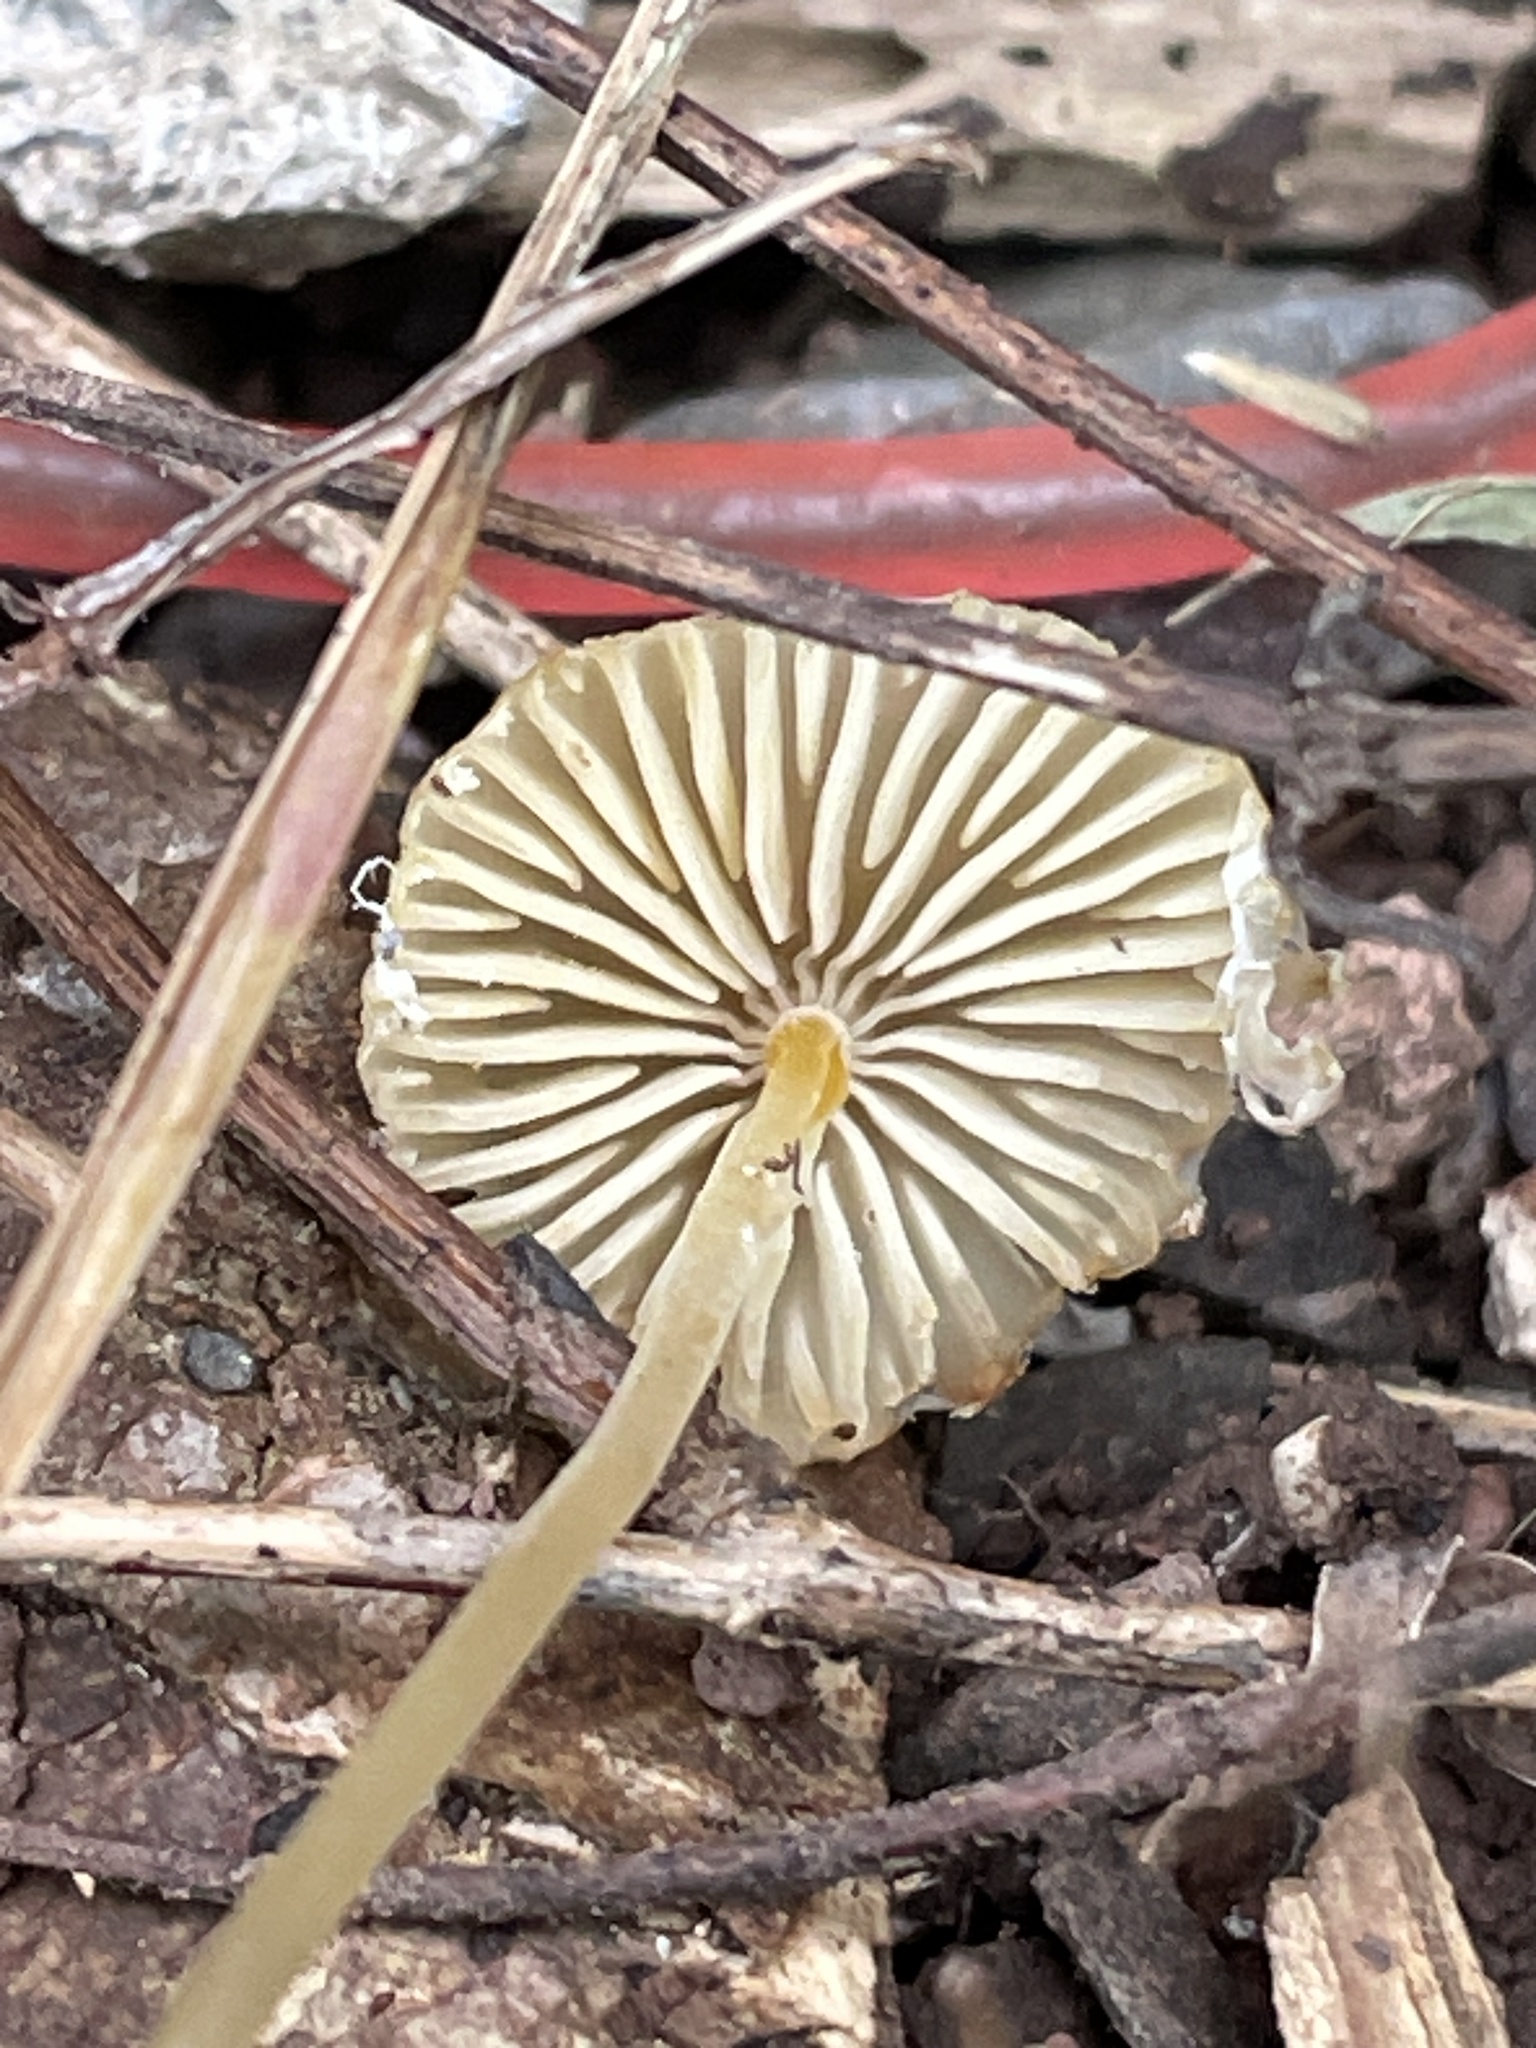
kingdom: Fungi
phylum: Basidiomycota
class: Agaricomycetes
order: Agaricales
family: Mycenaceae
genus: Mycena
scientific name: Mycena crocea
